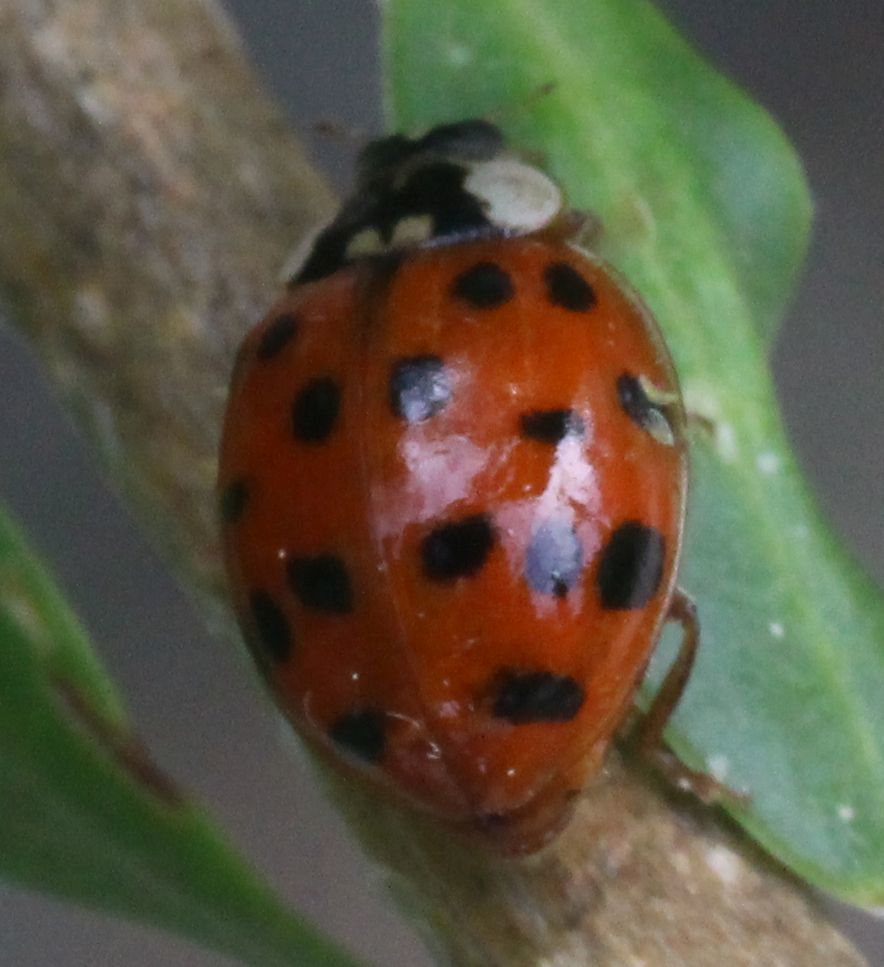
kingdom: Animalia
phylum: Arthropoda
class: Insecta
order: Coleoptera
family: Coccinellidae
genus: Harmonia
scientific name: Harmonia axyridis
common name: Harlequin ladybird
